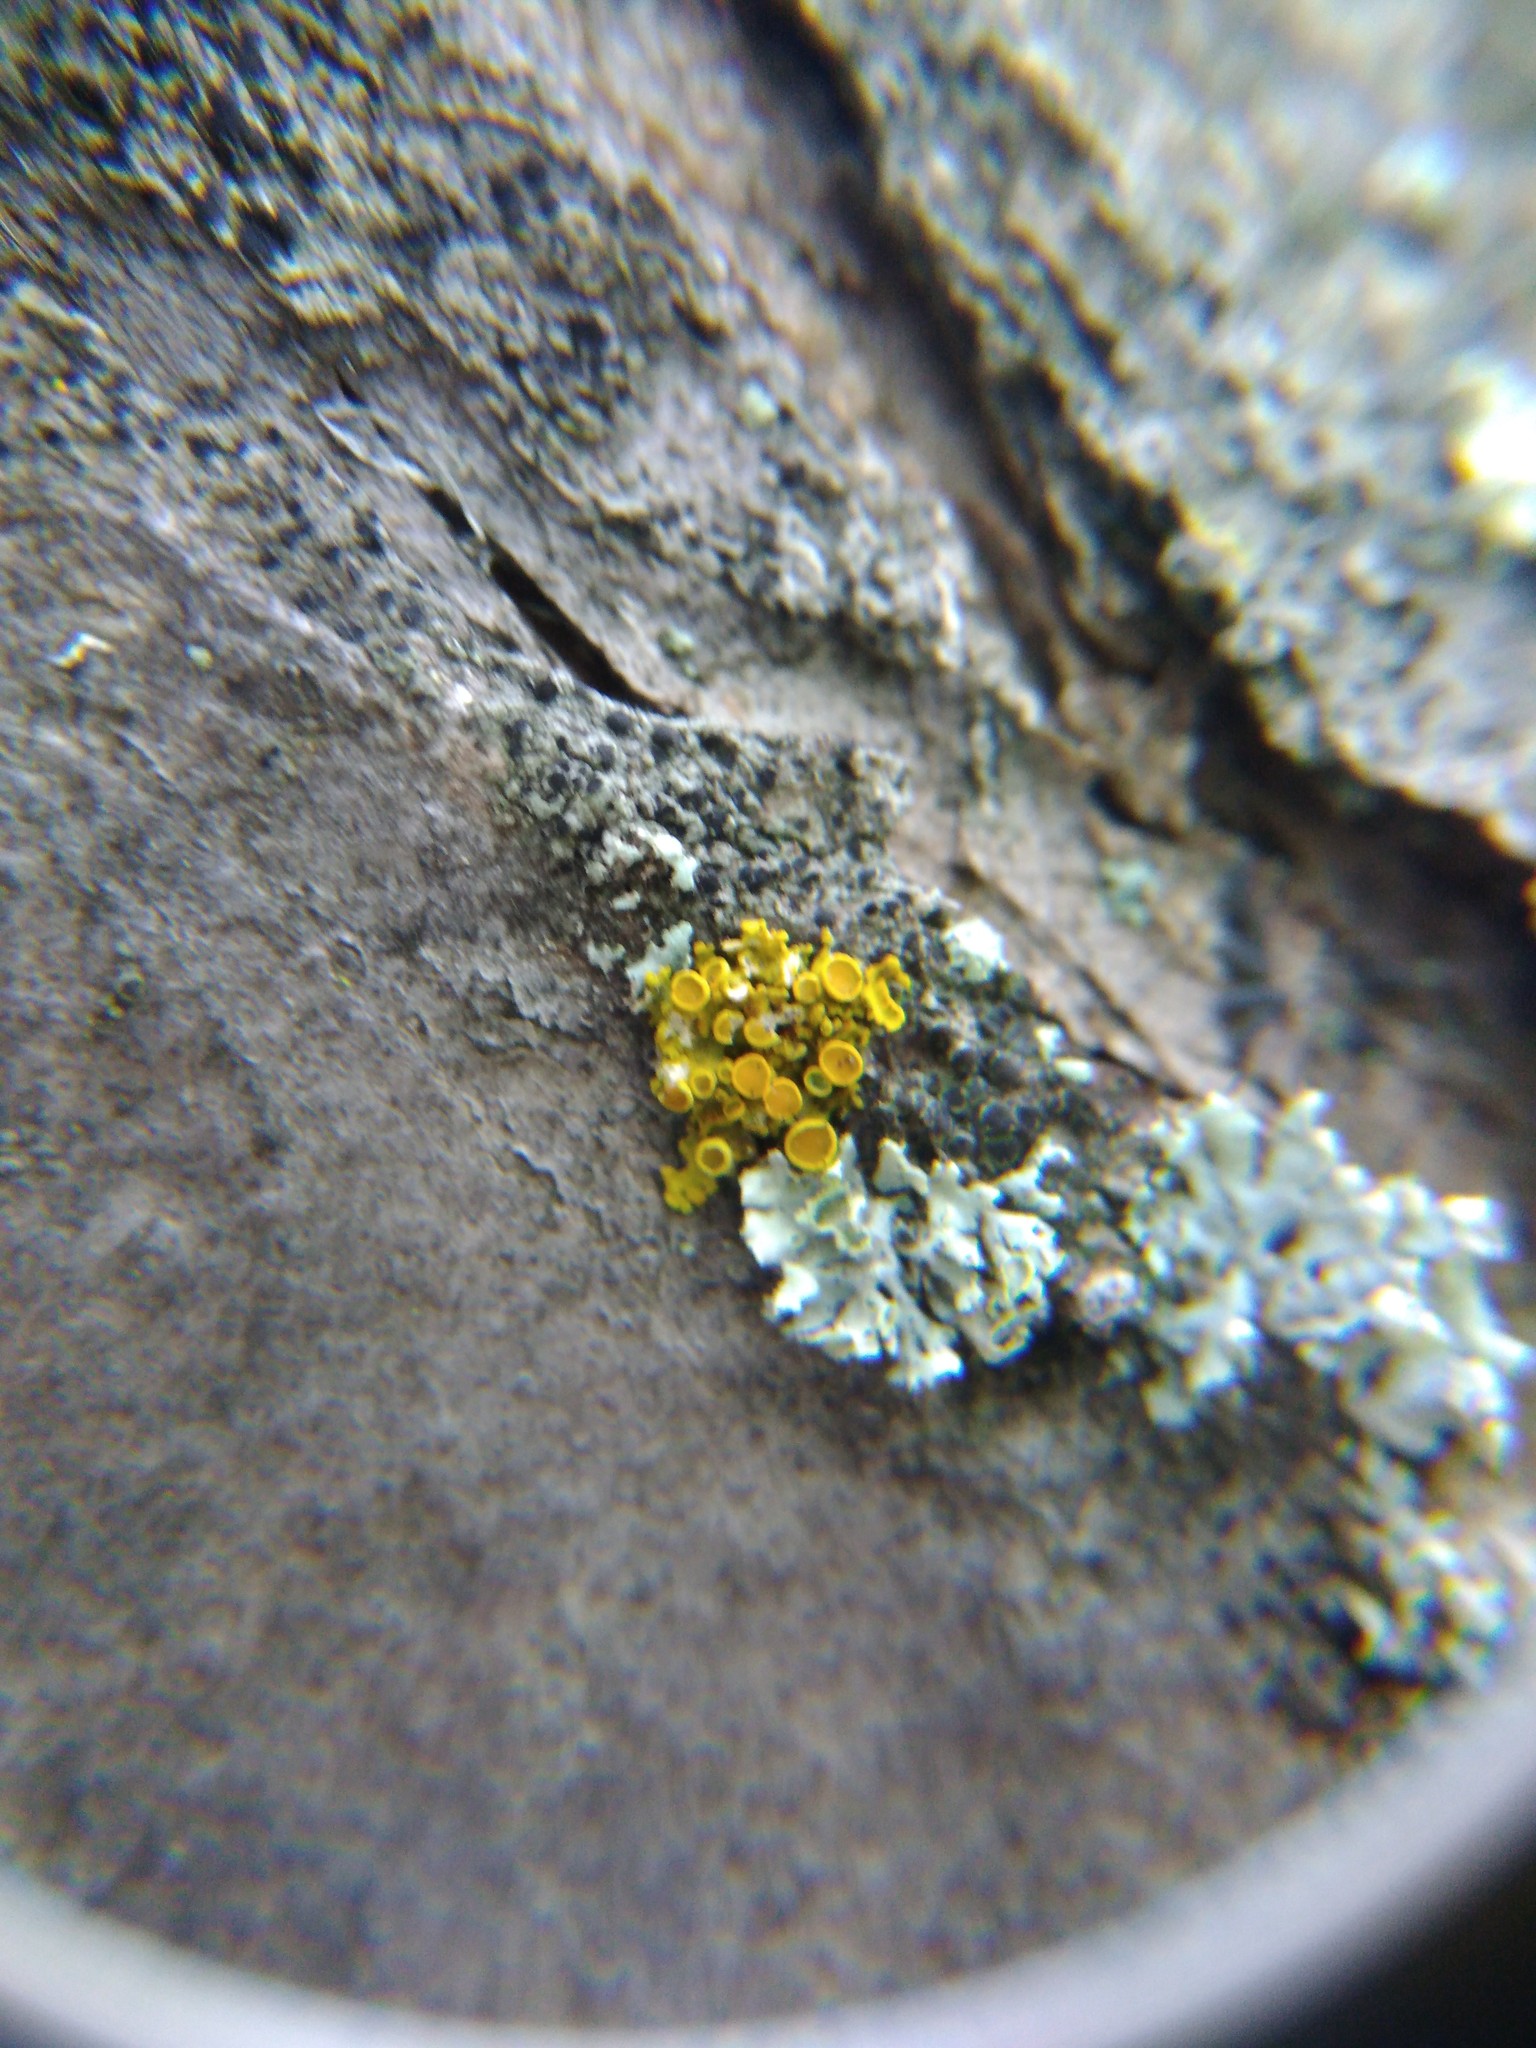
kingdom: Fungi
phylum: Ascomycota
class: Lecanoromycetes
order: Teloschistales
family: Teloschistaceae
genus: Polycauliona
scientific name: Polycauliona polycarpa
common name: Pin-cushion sunburst lichen
